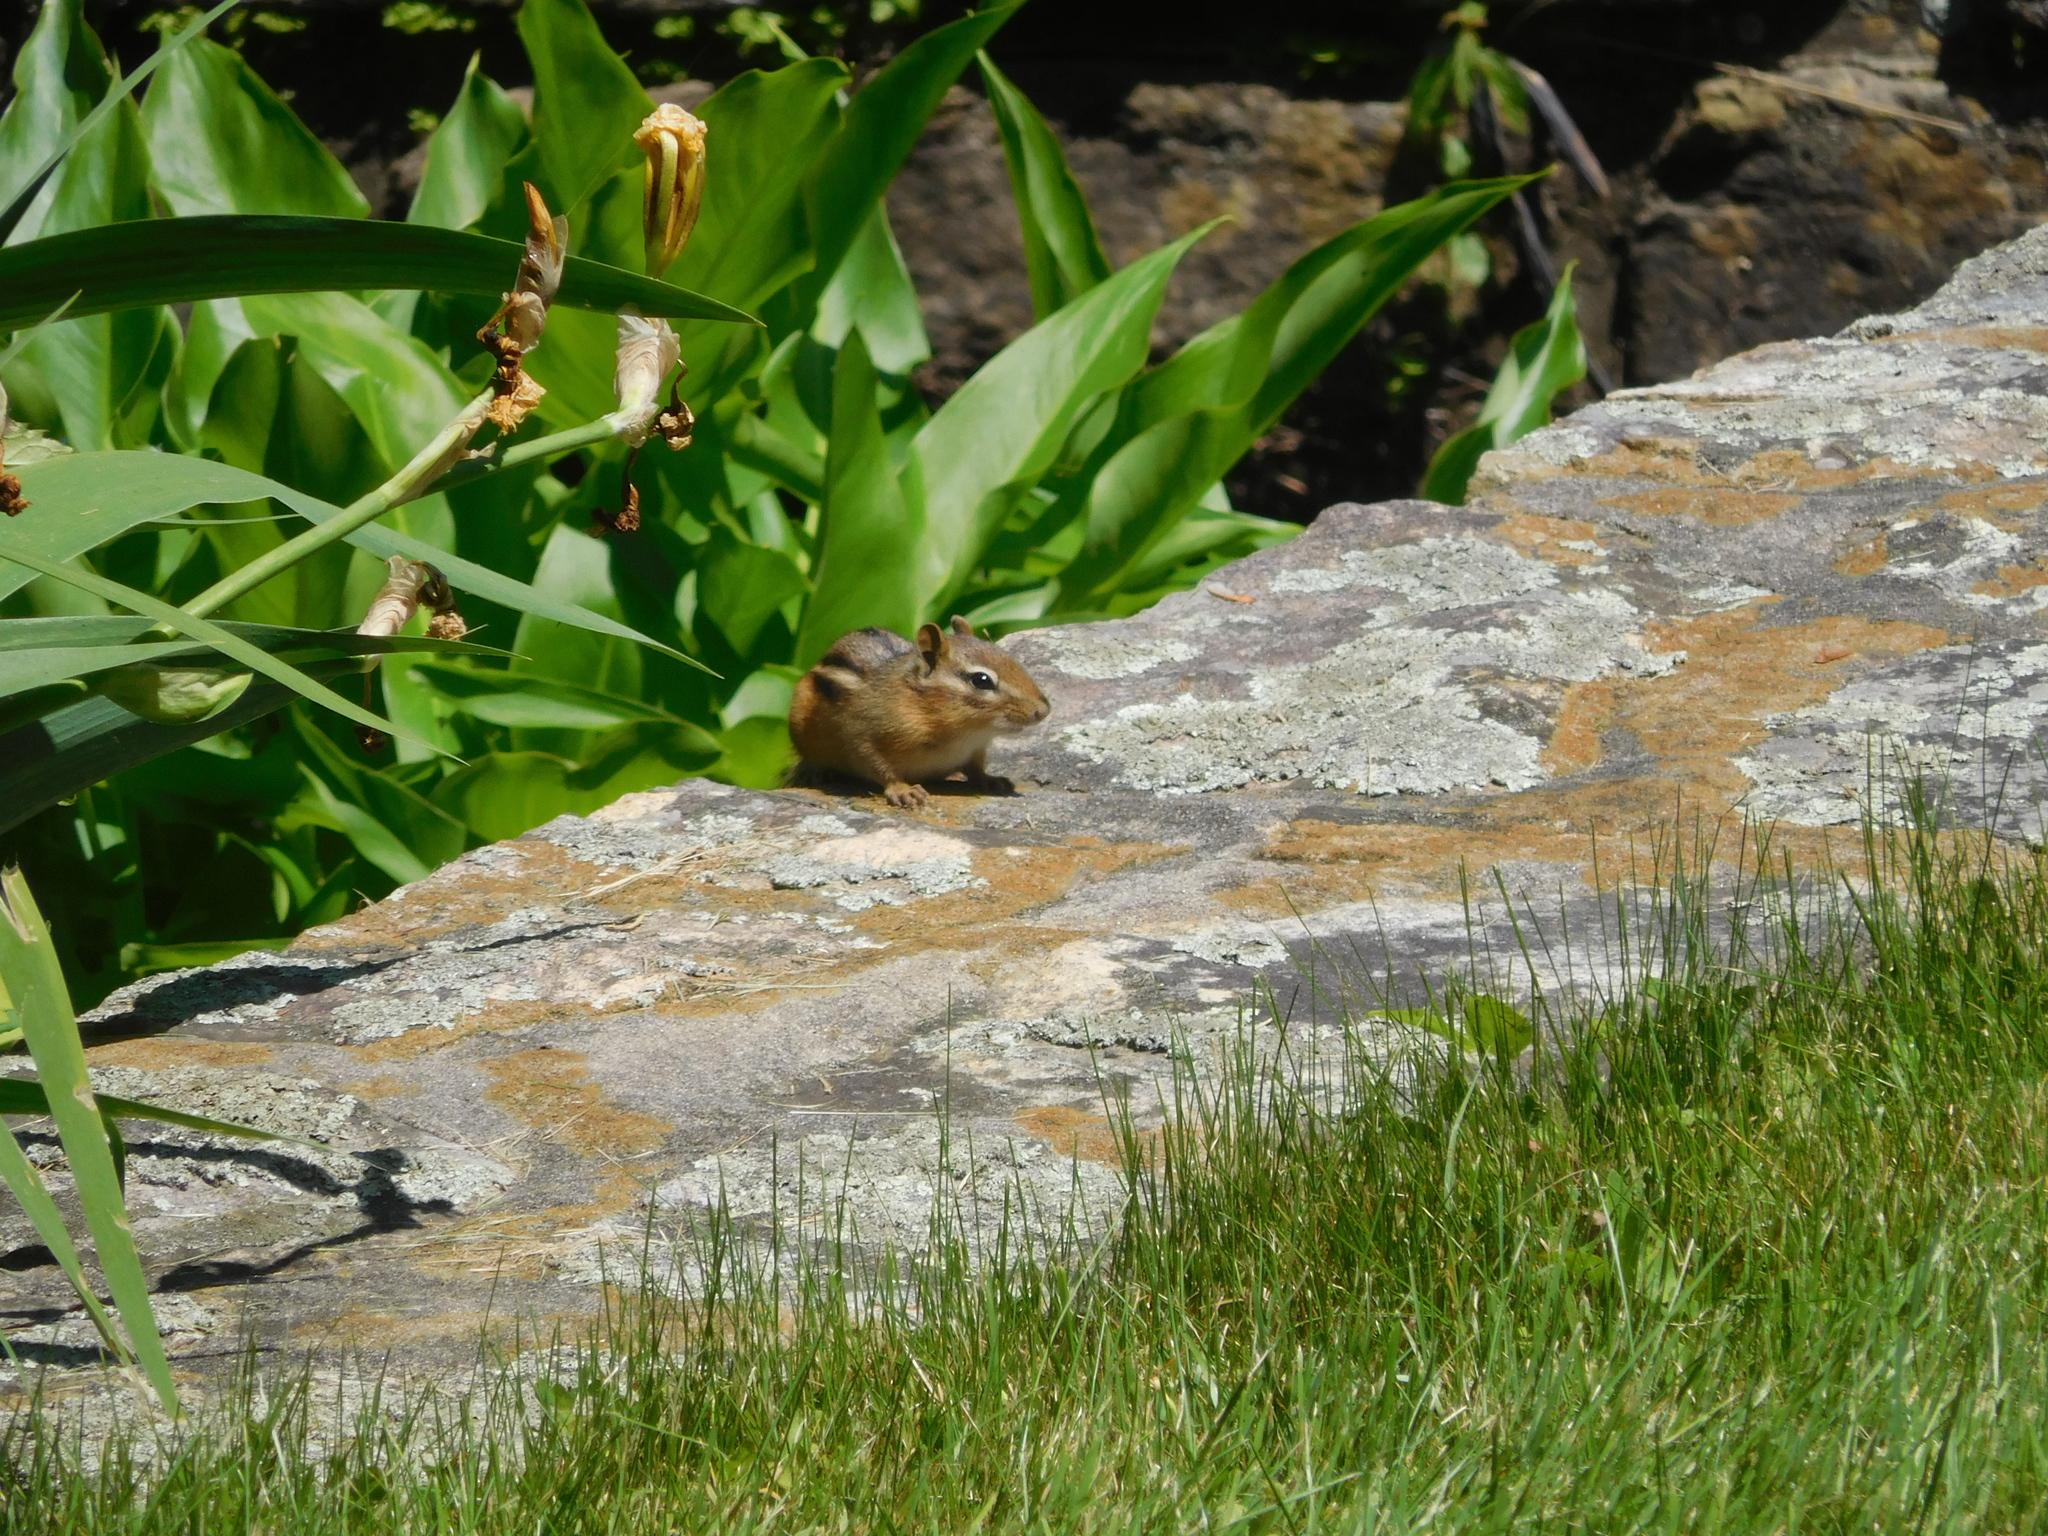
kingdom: Animalia
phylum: Chordata
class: Mammalia
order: Rodentia
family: Sciuridae
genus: Tamias
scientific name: Tamias striatus
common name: Eastern chipmunk
